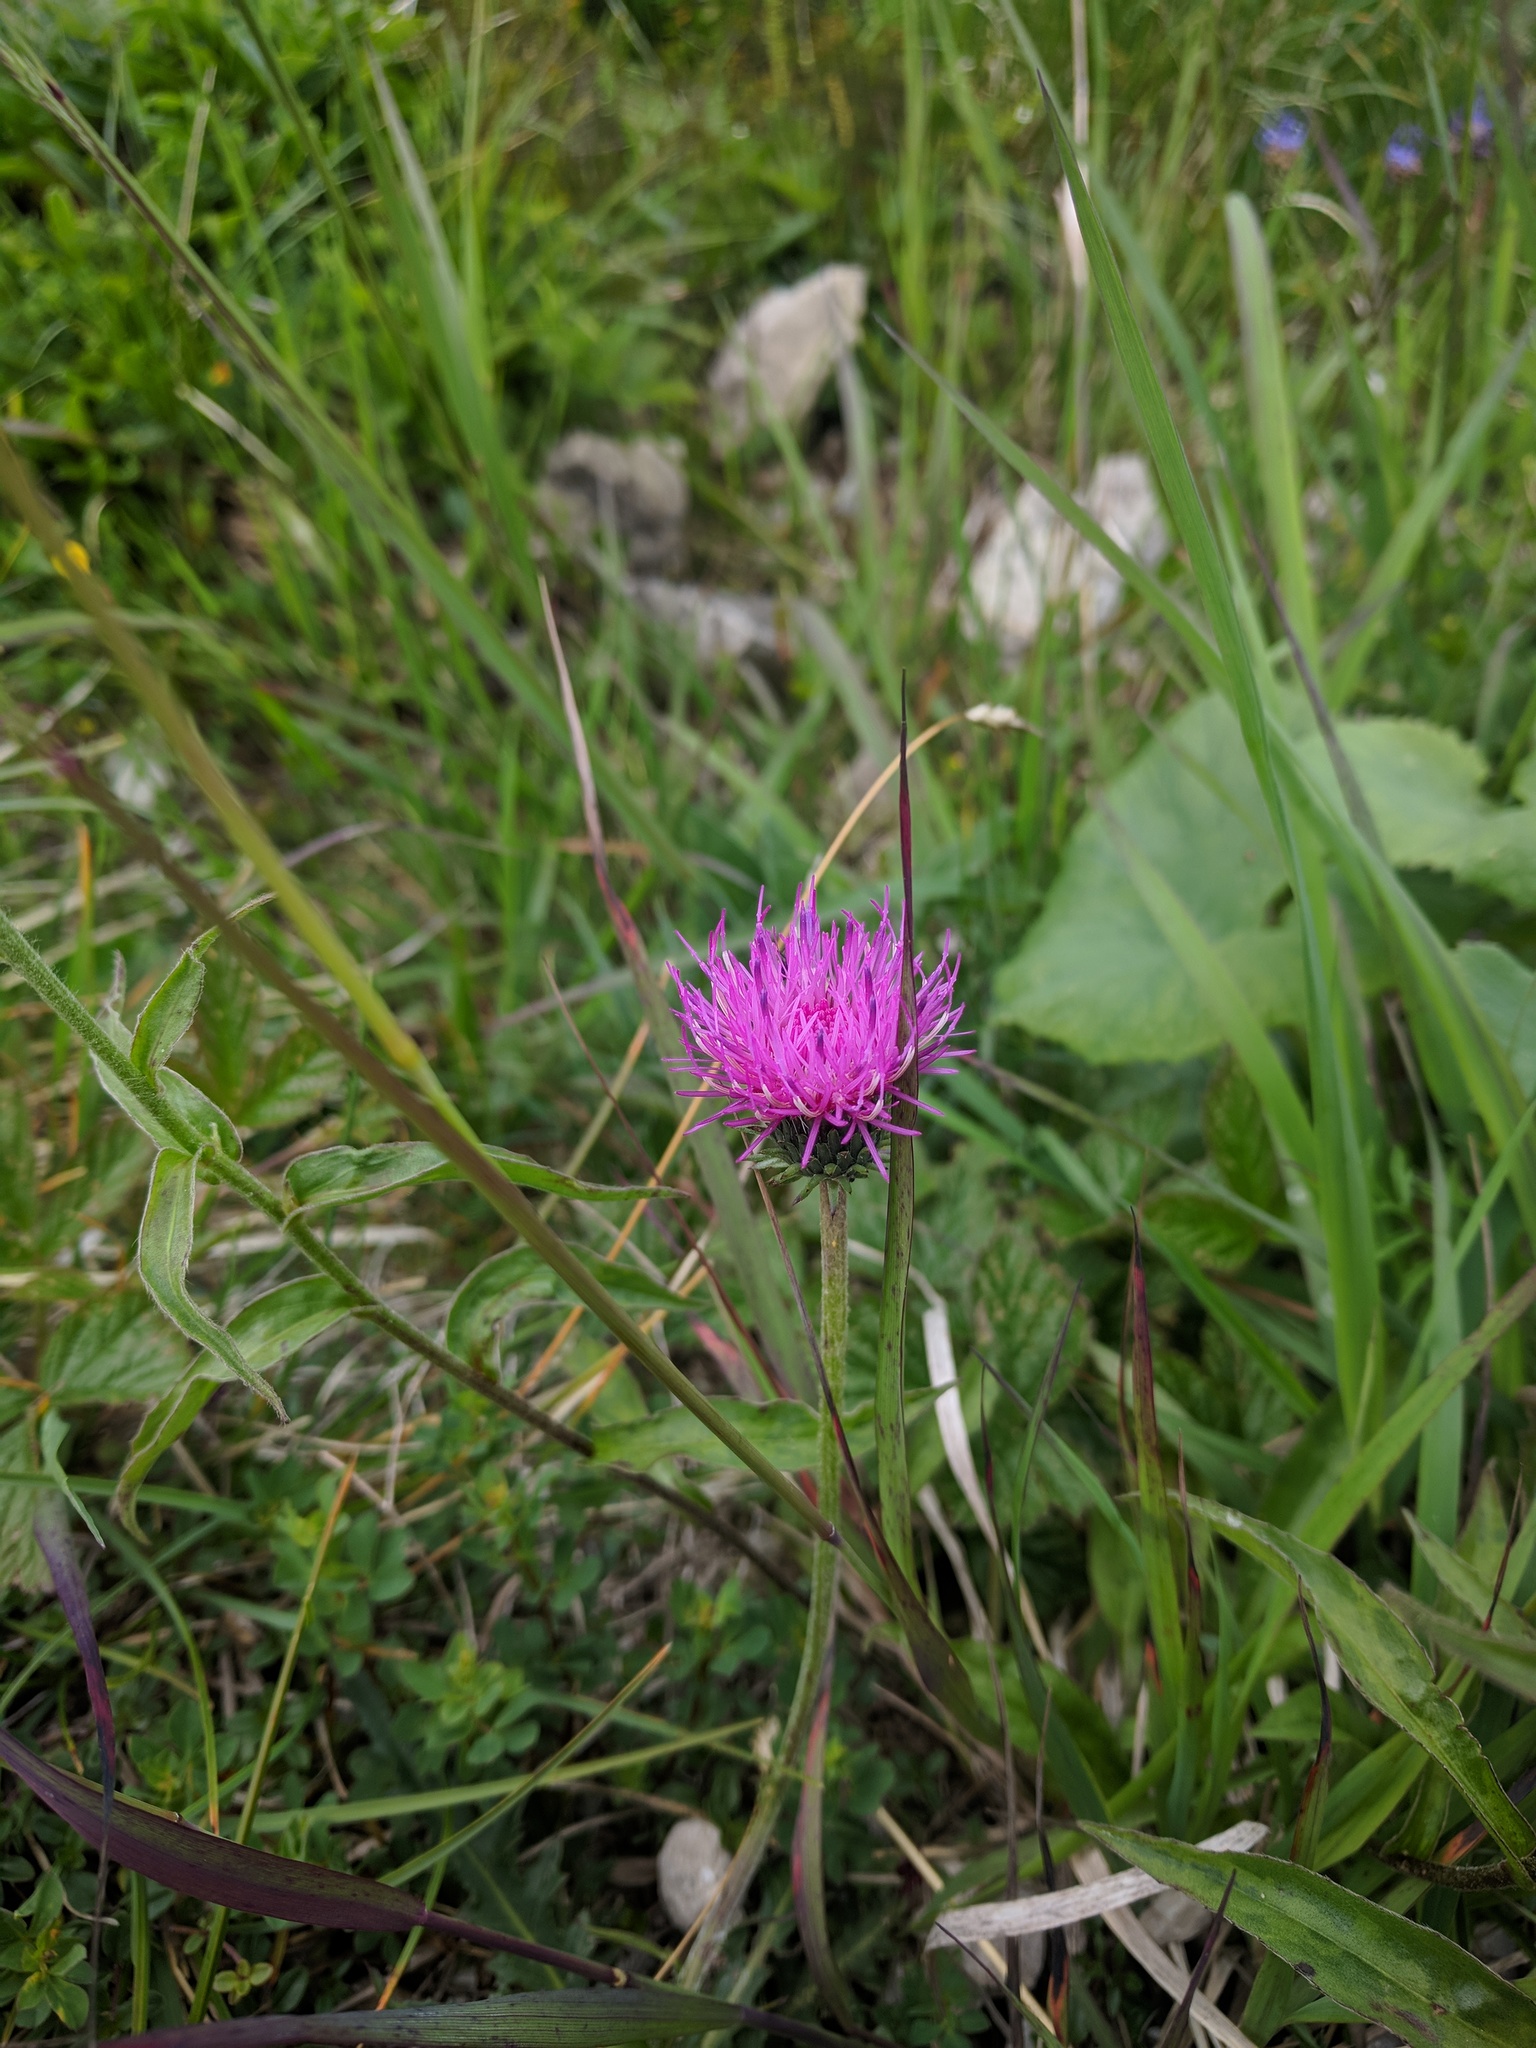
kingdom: Plantae
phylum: Tracheophyta
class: Magnoliopsida
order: Asterales
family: Asteraceae
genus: Carduus
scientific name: Carduus defloratus
